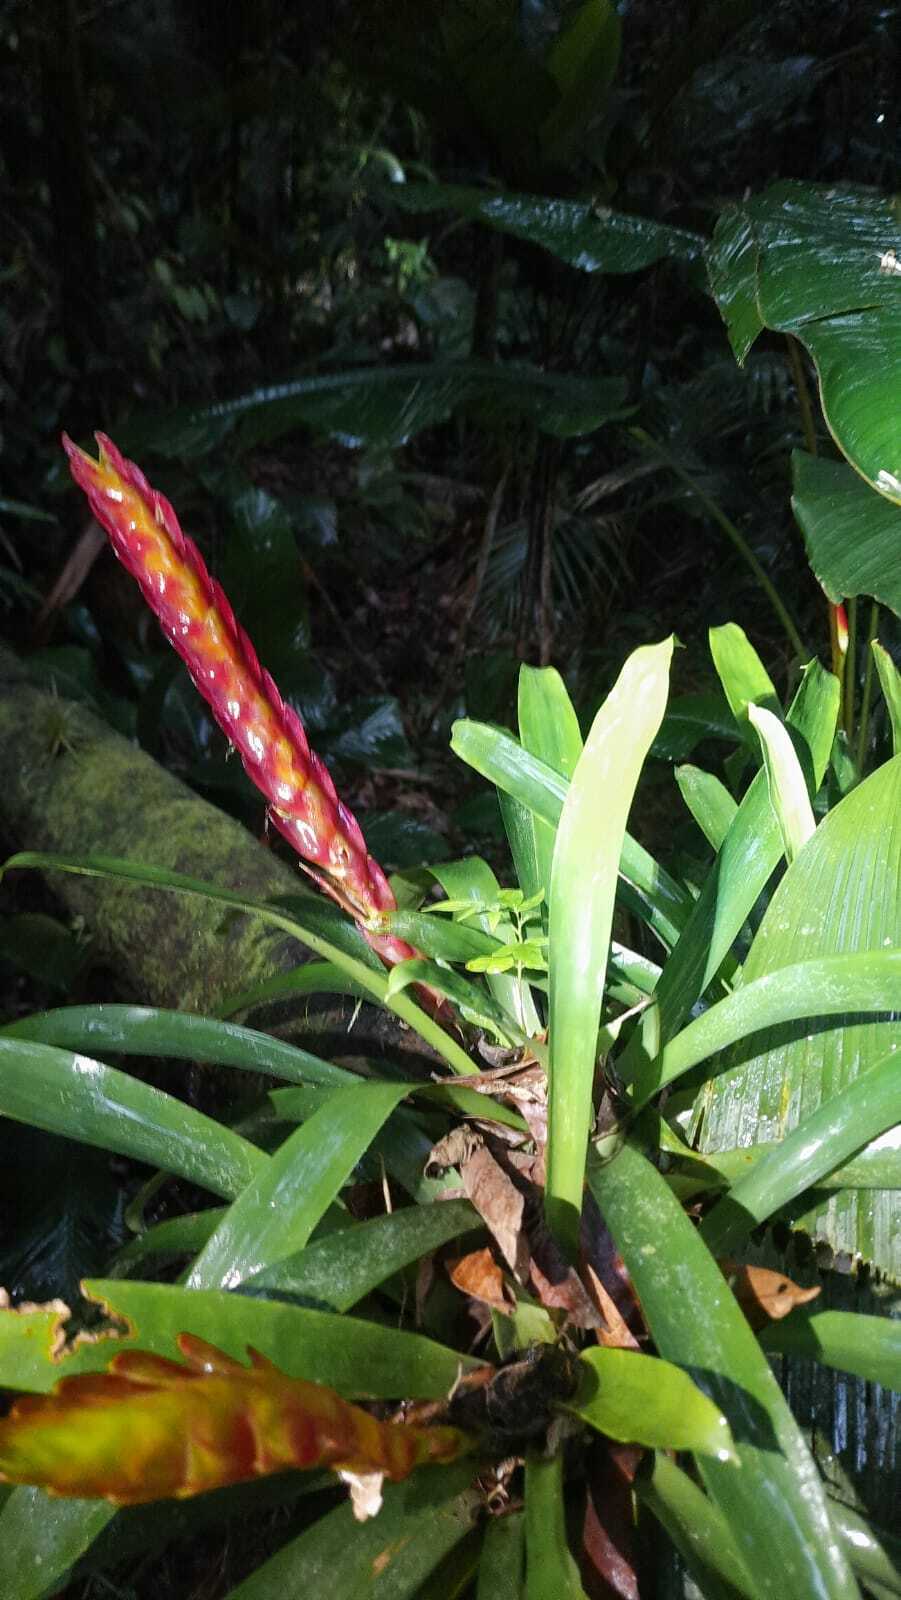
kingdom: Plantae
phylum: Tracheophyta
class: Liliopsida
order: Poales
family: Bromeliaceae
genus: Vriesea
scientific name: Vriesea incurvata
